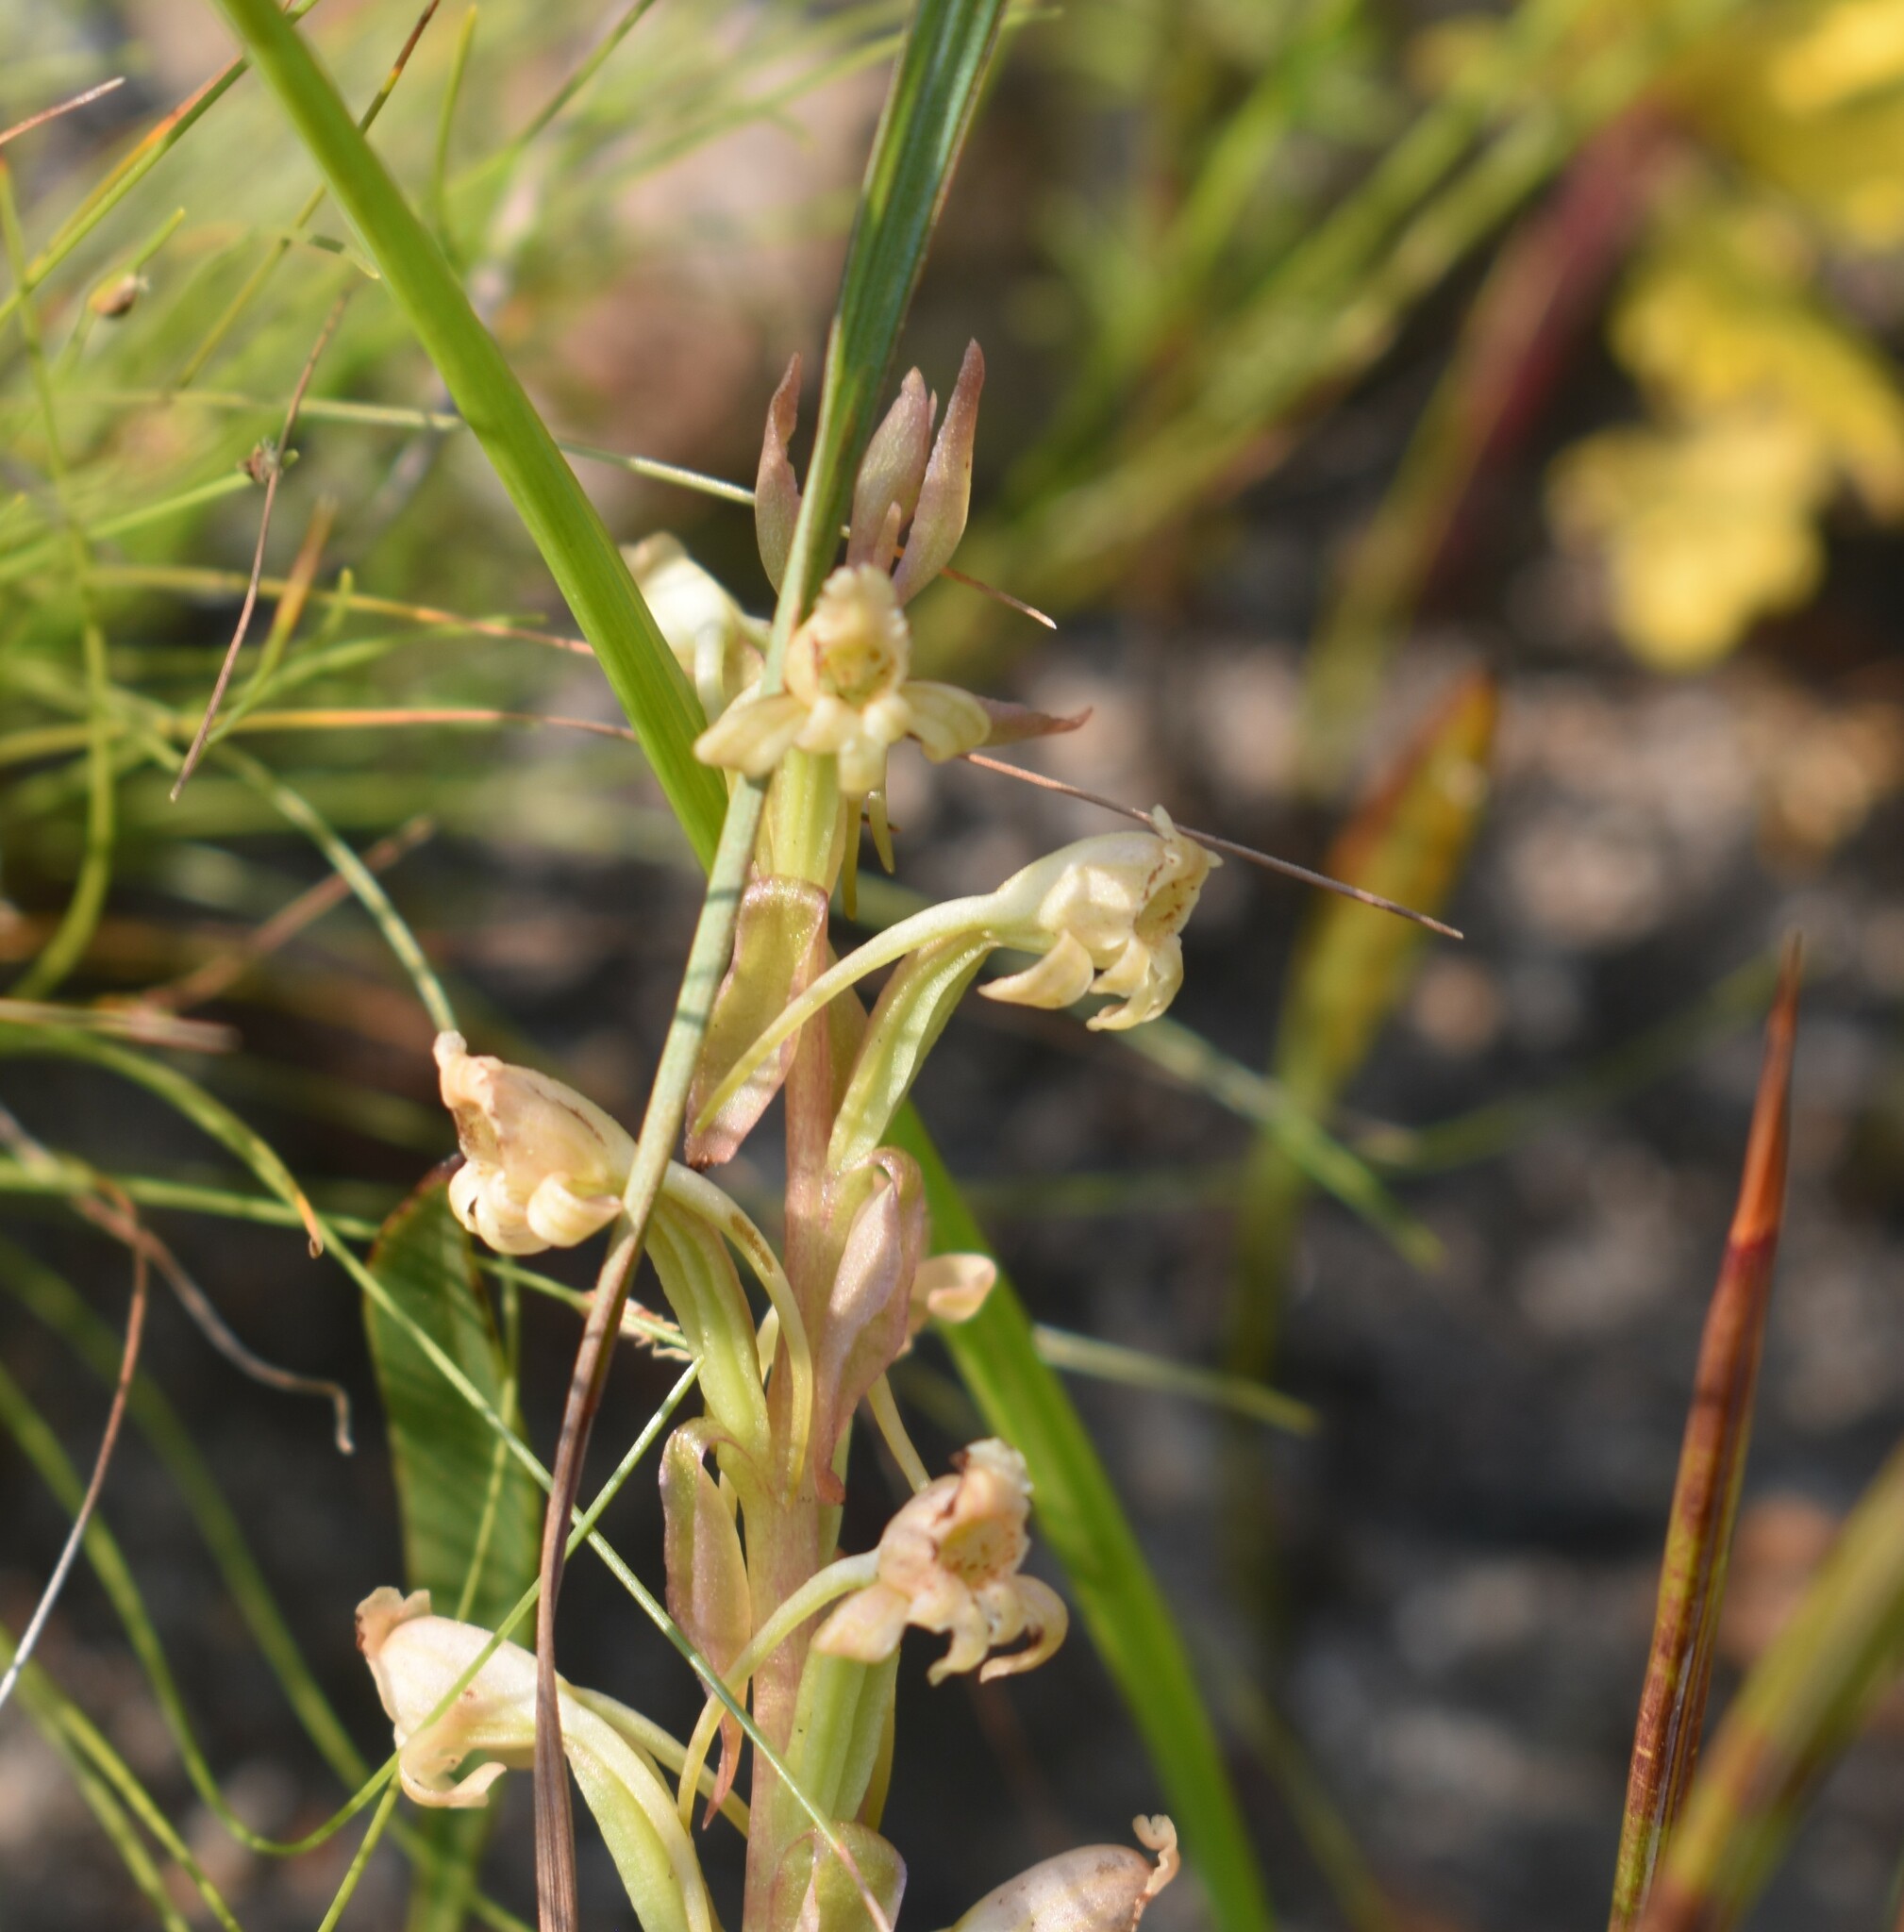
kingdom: Plantae
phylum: Tracheophyta
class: Liliopsida
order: Asparagales
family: Orchidaceae
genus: Satyrium
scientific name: Satyrium humile
